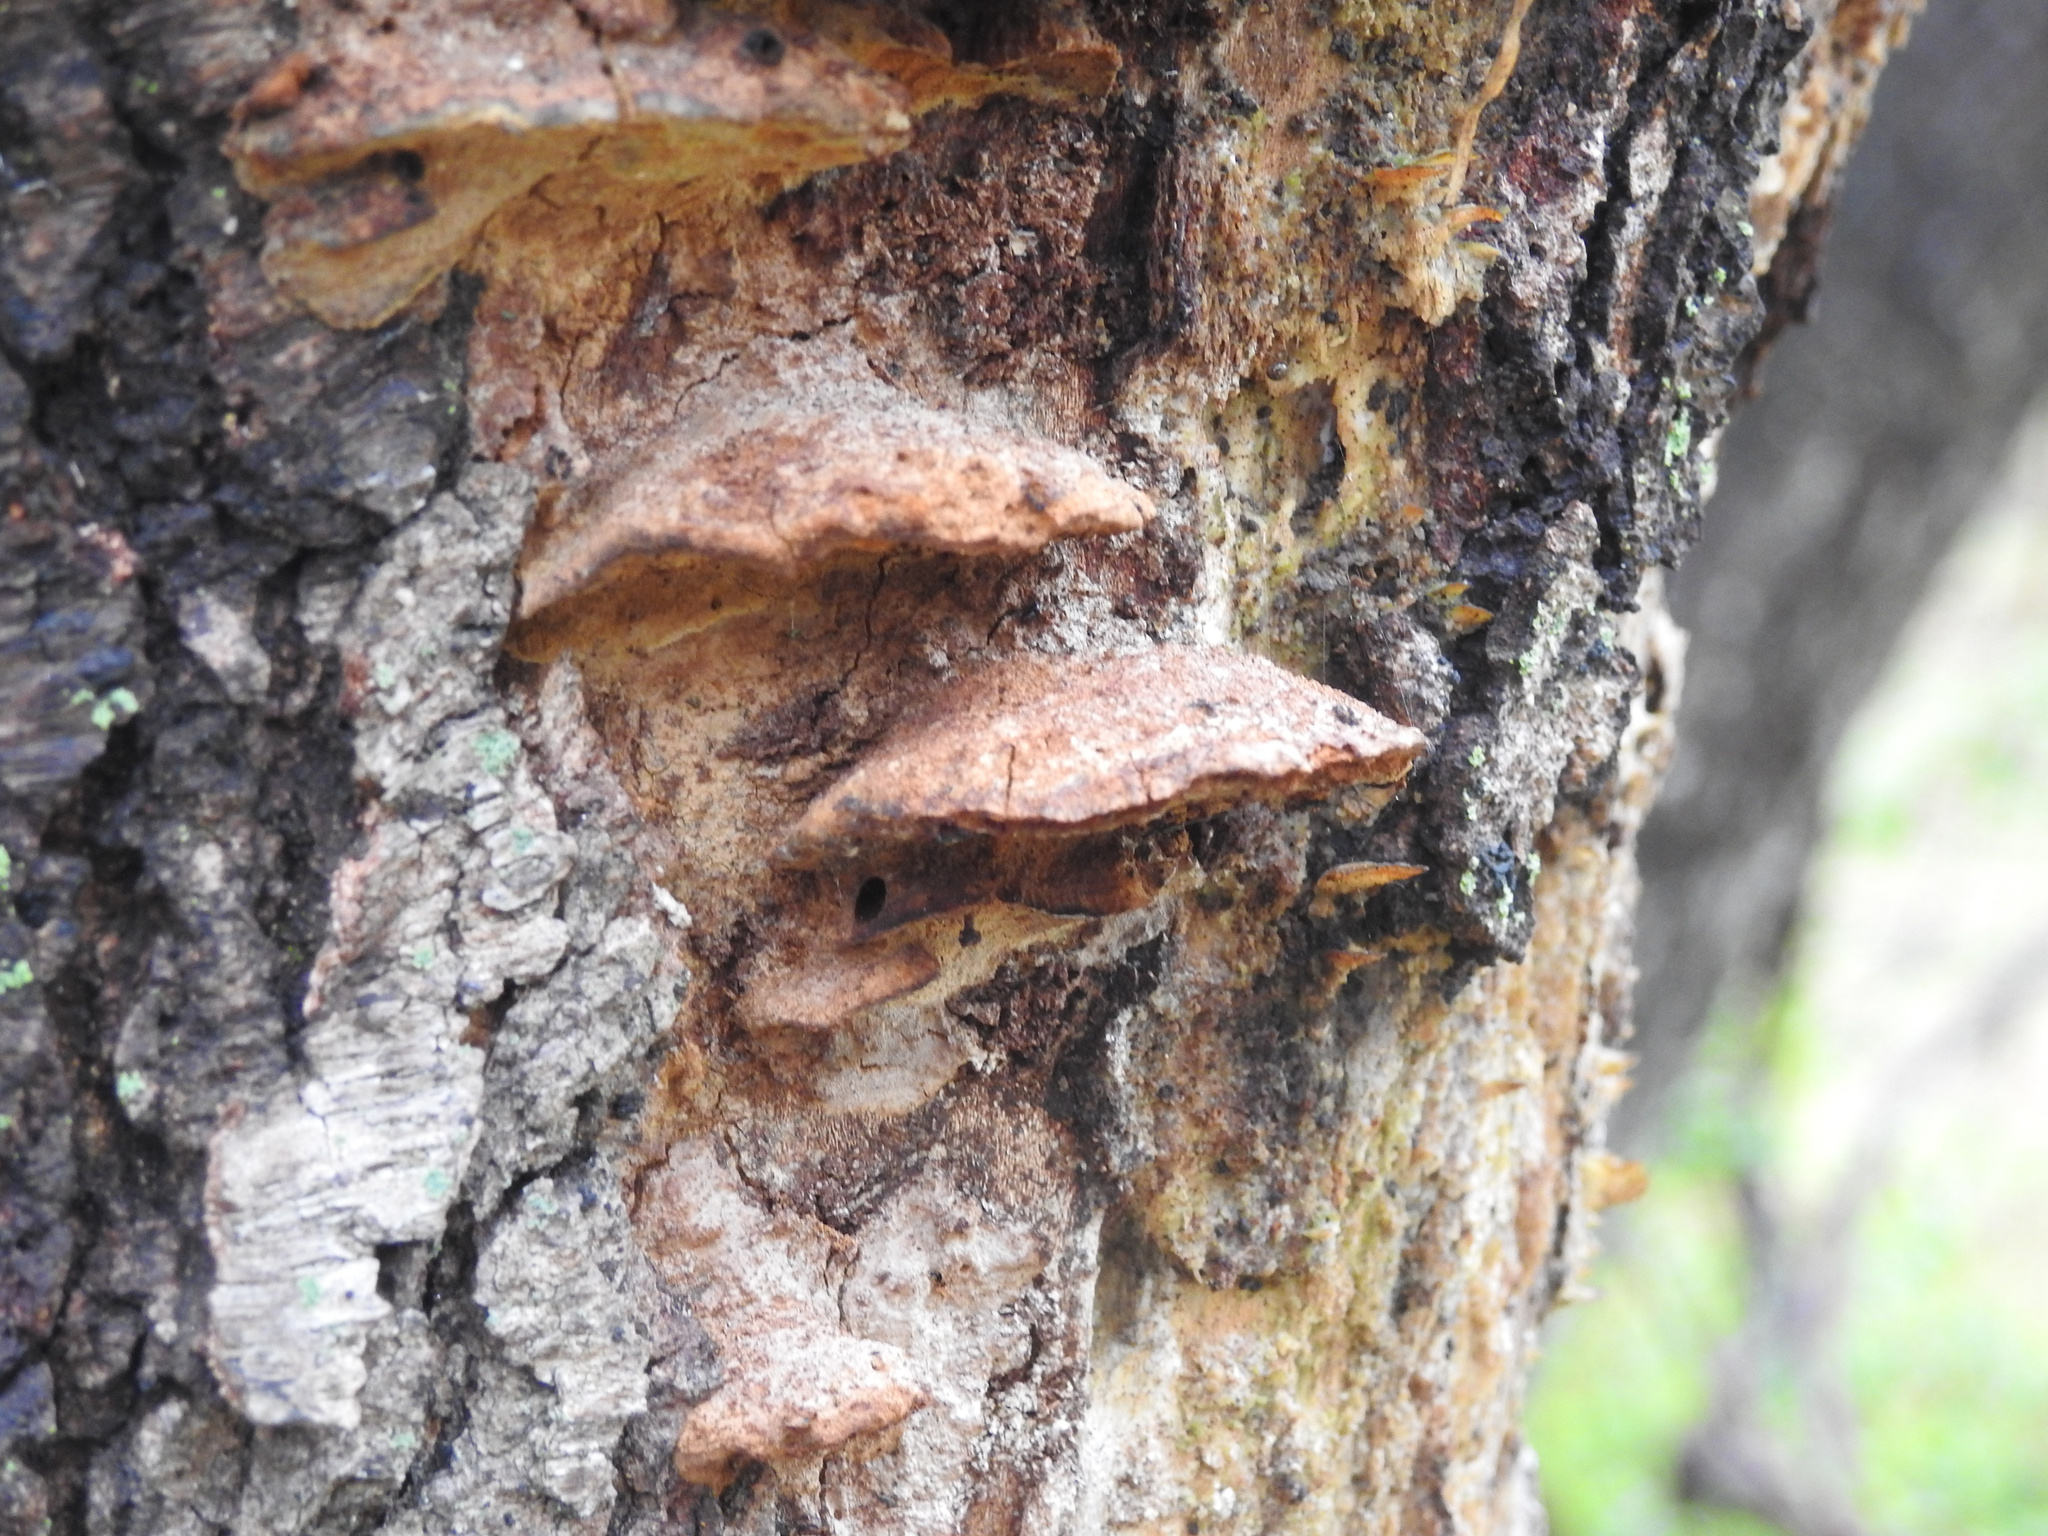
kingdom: Fungi
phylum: Basidiomycota
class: Agaricomycetes
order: Hymenochaetales
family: Hymenochaetaceae
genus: Phellinus
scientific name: Phellinus gilvus
